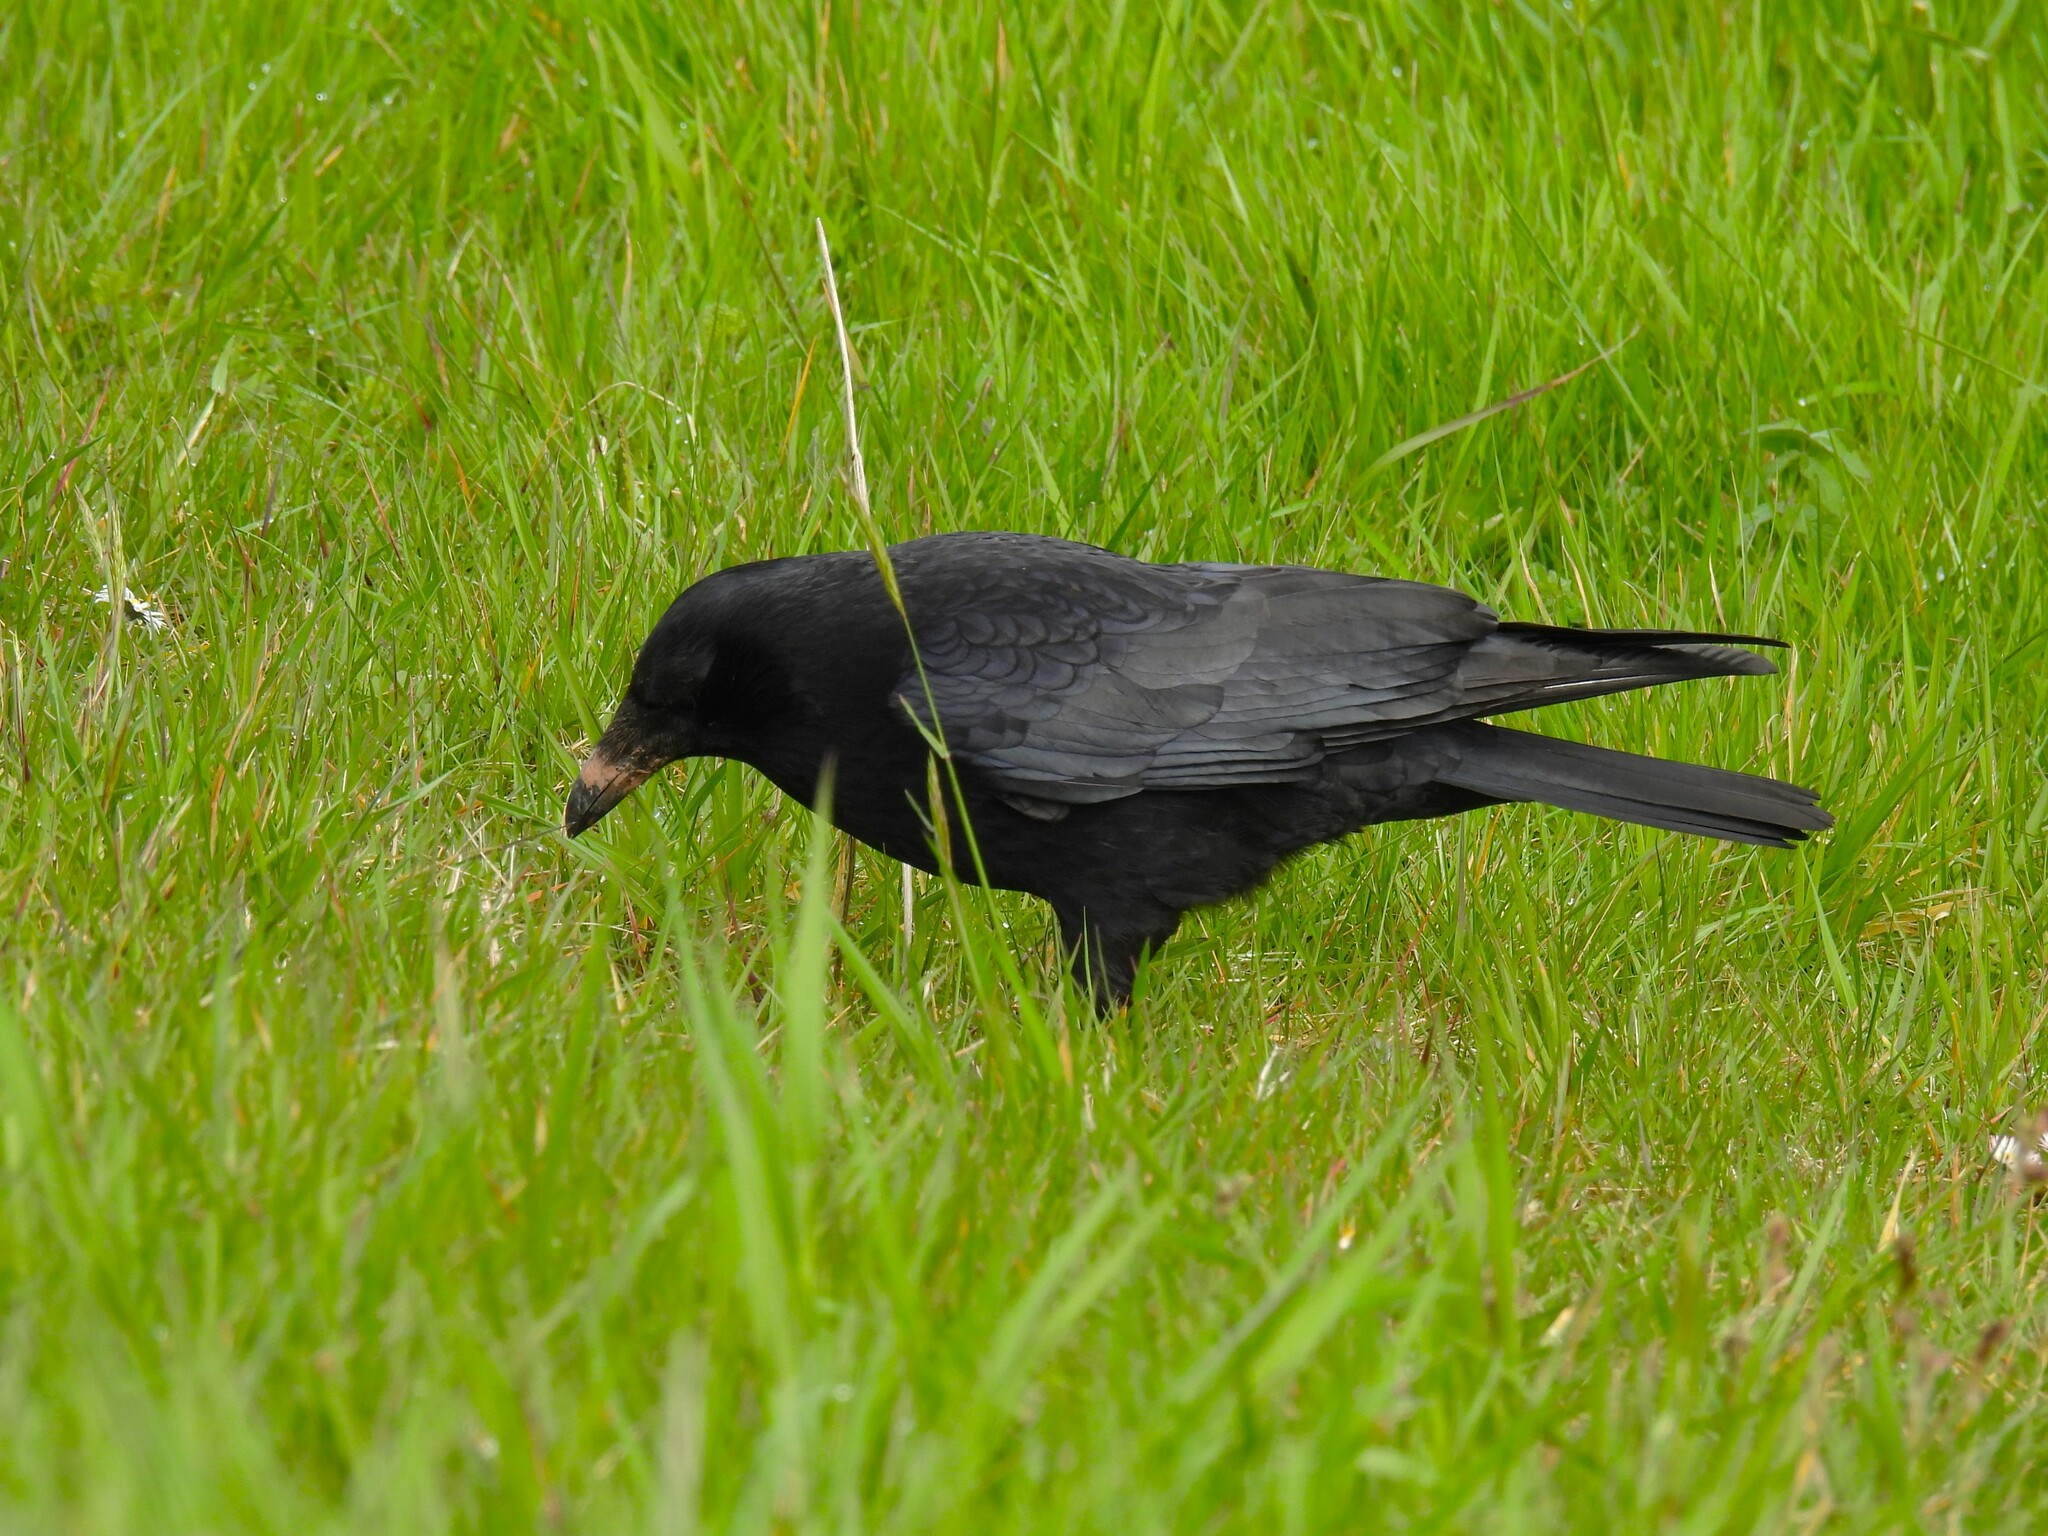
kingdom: Animalia
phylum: Chordata
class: Aves
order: Passeriformes
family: Corvidae
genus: Corvus
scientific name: Corvus corone
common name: Carrion crow
